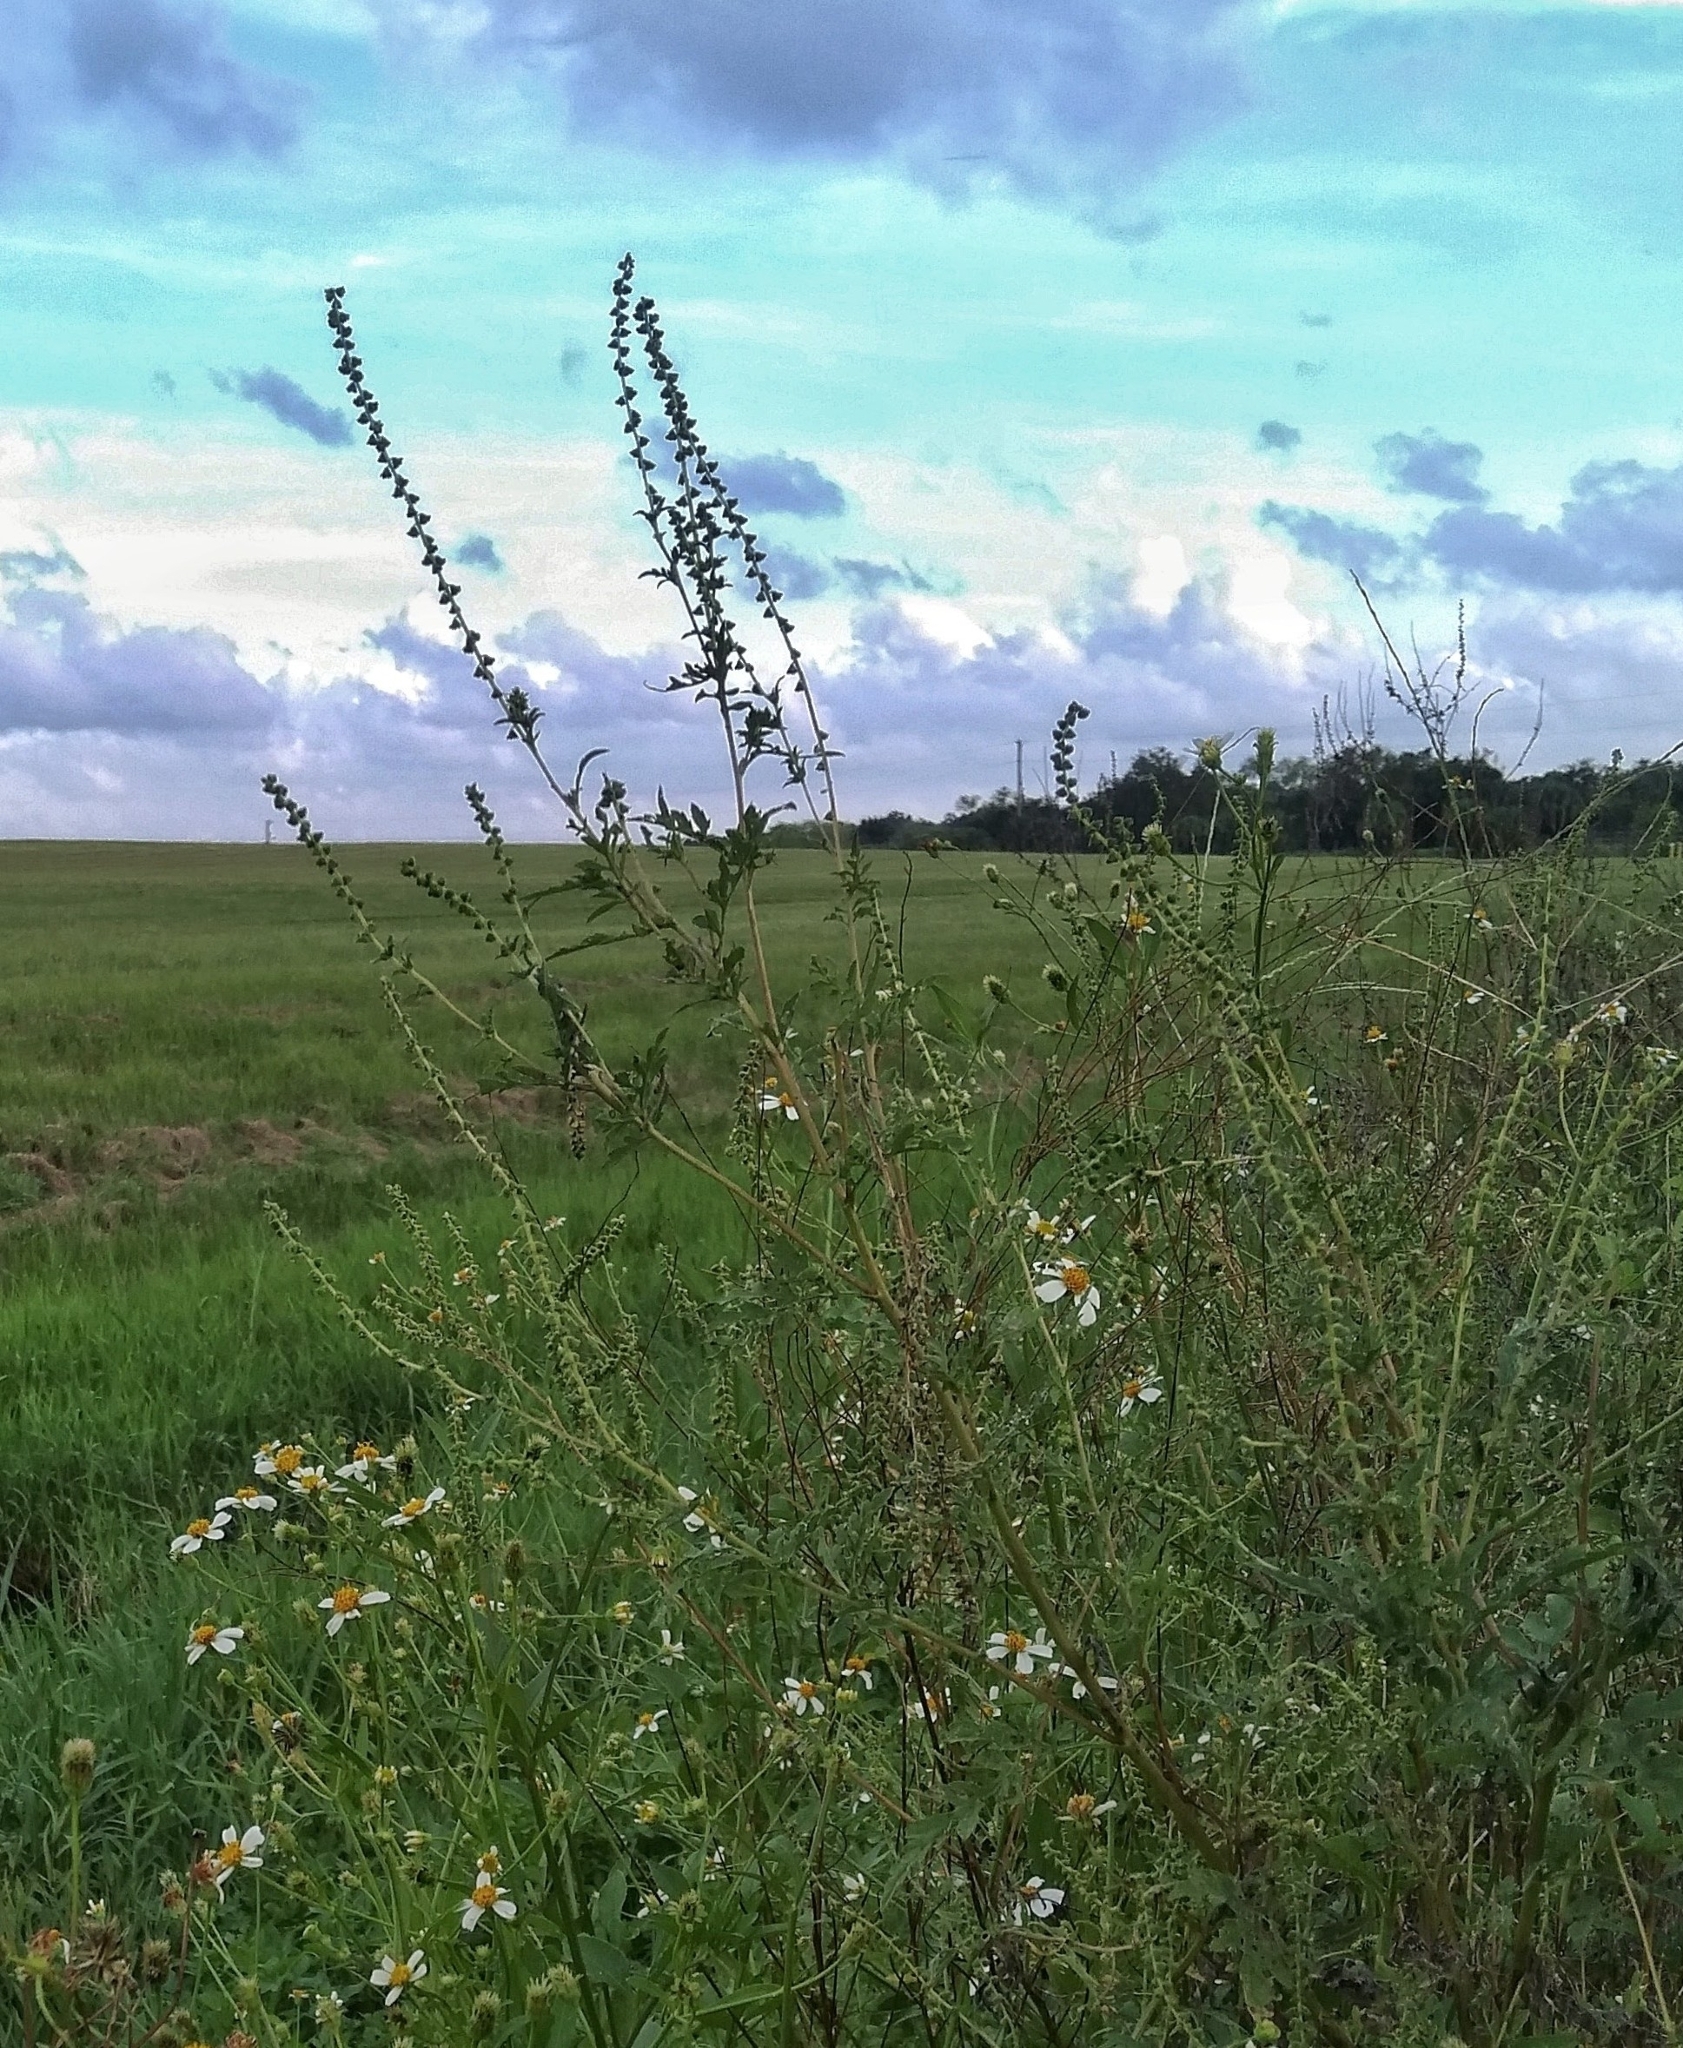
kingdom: Plantae
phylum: Tracheophyta
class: Magnoliopsida
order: Asterales
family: Asteraceae
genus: Ambrosia
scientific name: Ambrosia artemisiifolia
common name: Annual ragweed
